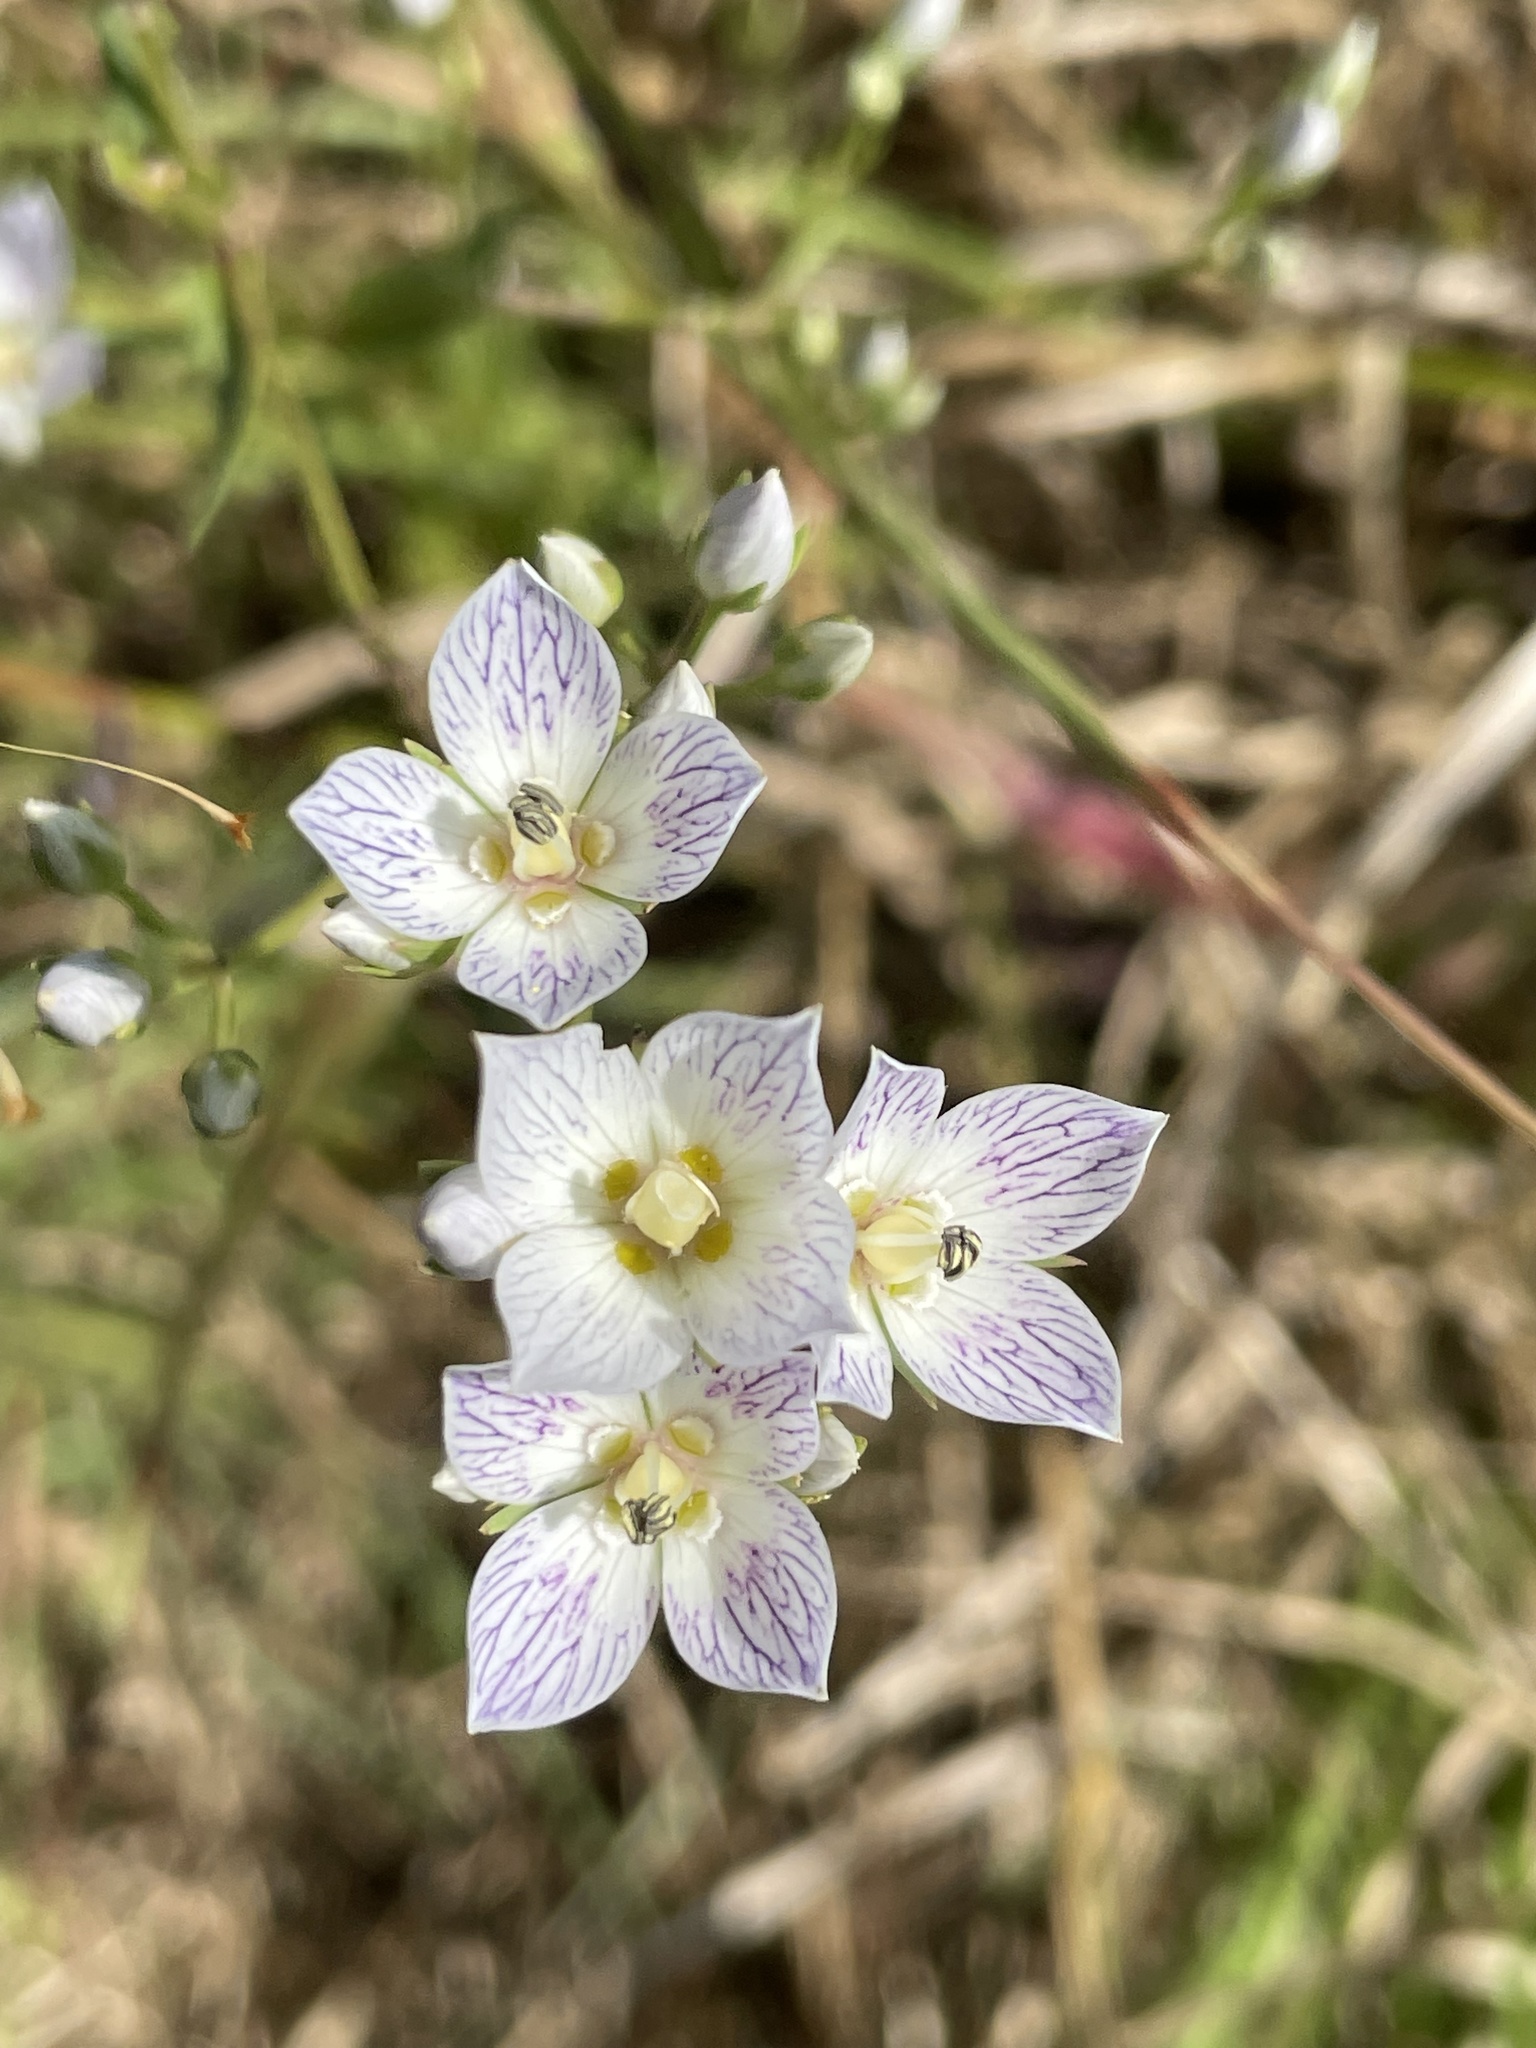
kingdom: Plantae
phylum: Tracheophyta
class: Magnoliopsida
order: Gentianales
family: Gentianaceae
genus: Swertia
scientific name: Swertia densifolia
